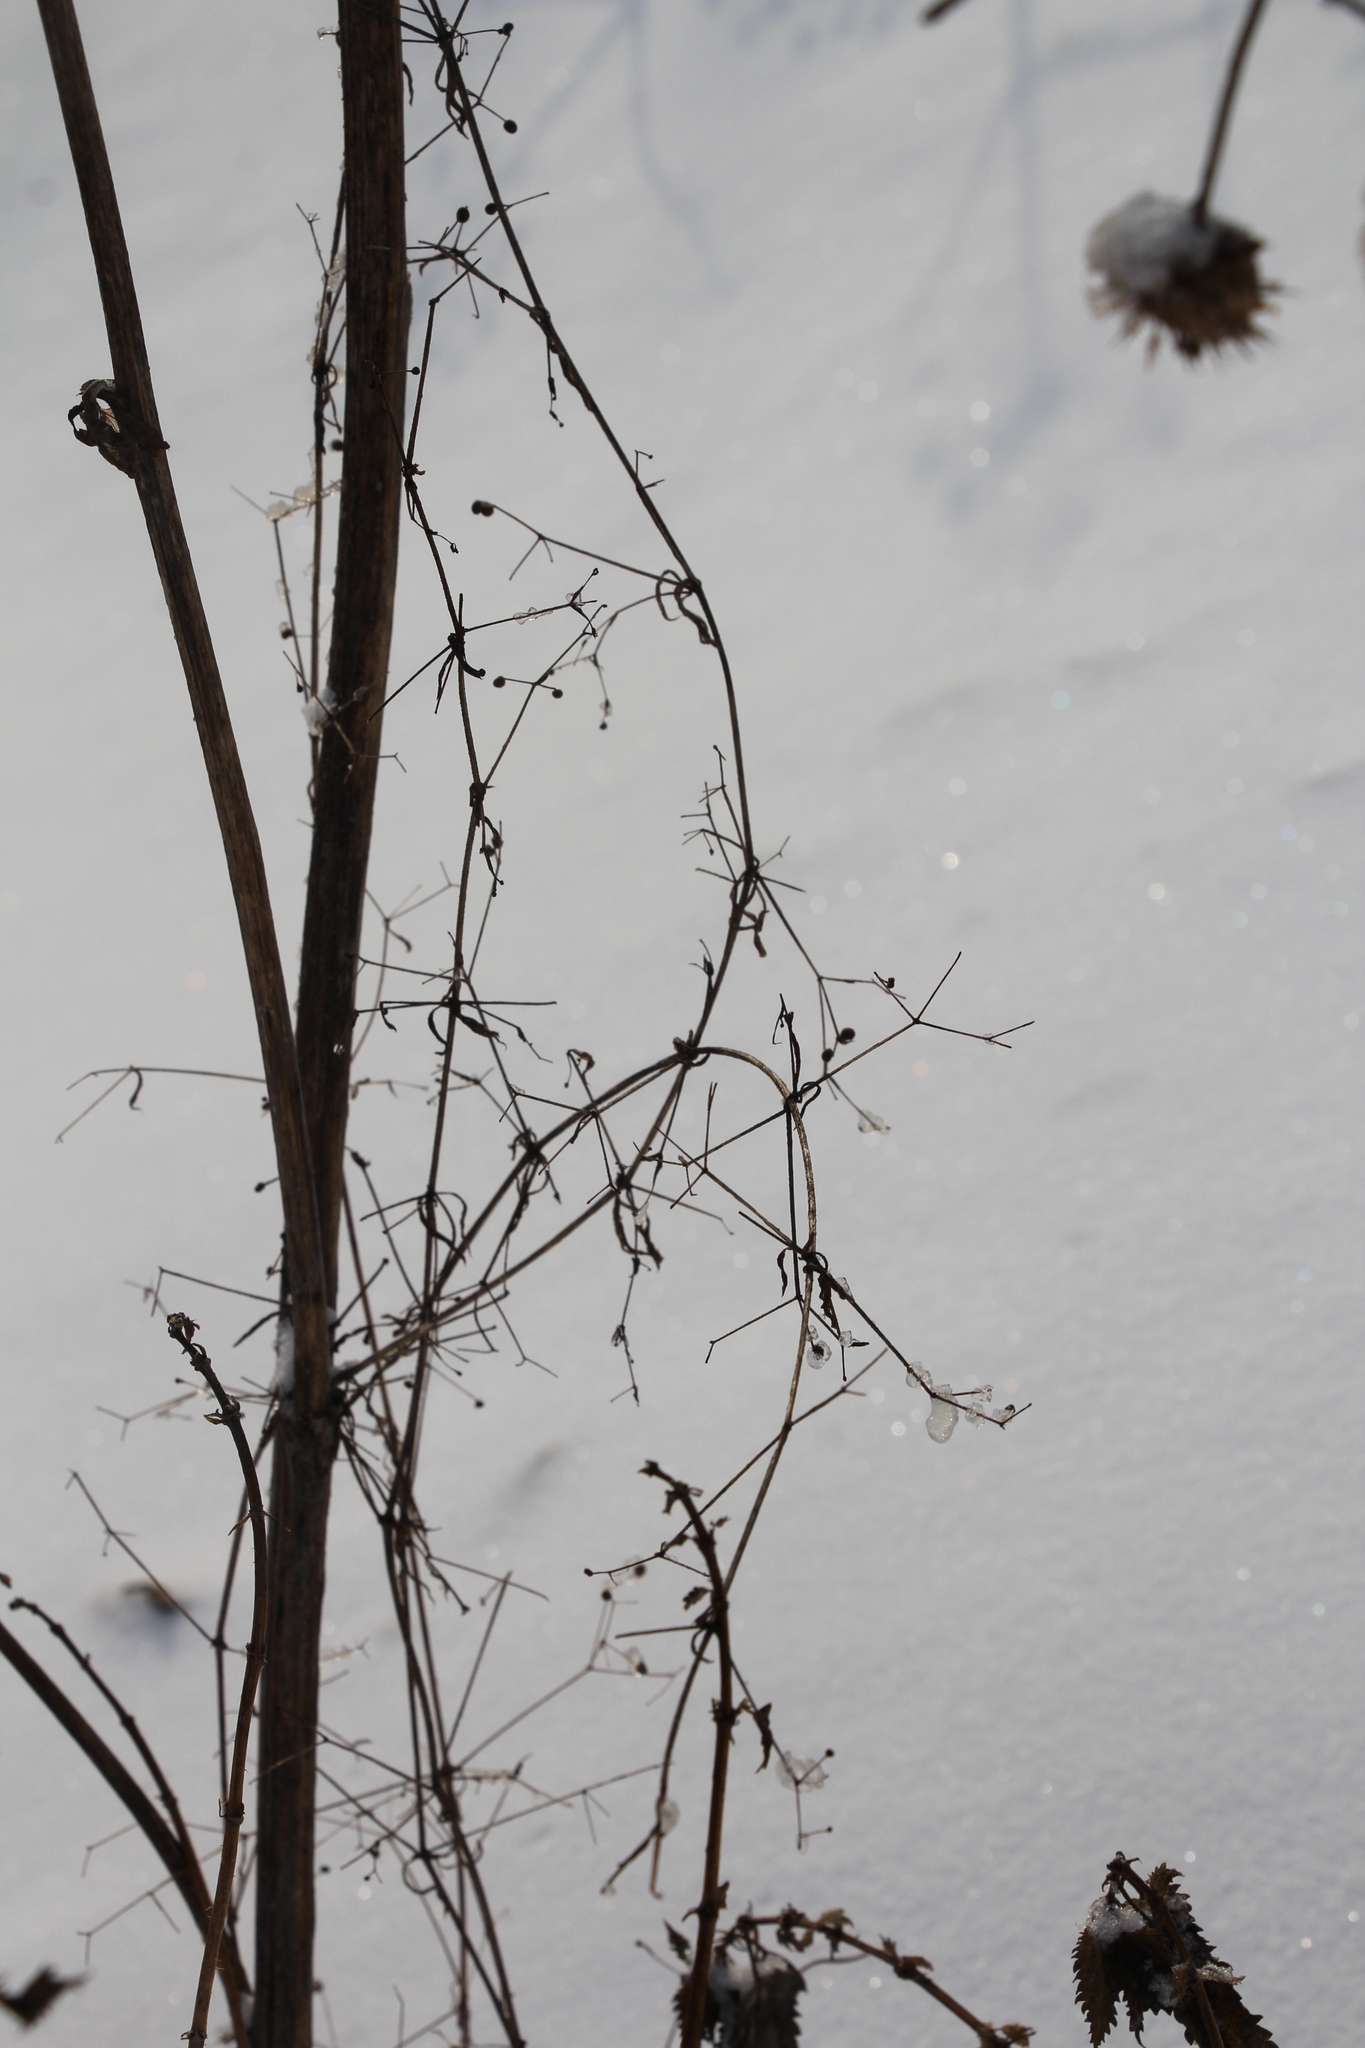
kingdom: Plantae
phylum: Tracheophyta
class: Magnoliopsida
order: Gentianales
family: Rubiaceae
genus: Galium
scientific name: Galium aparine
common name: Cleavers
